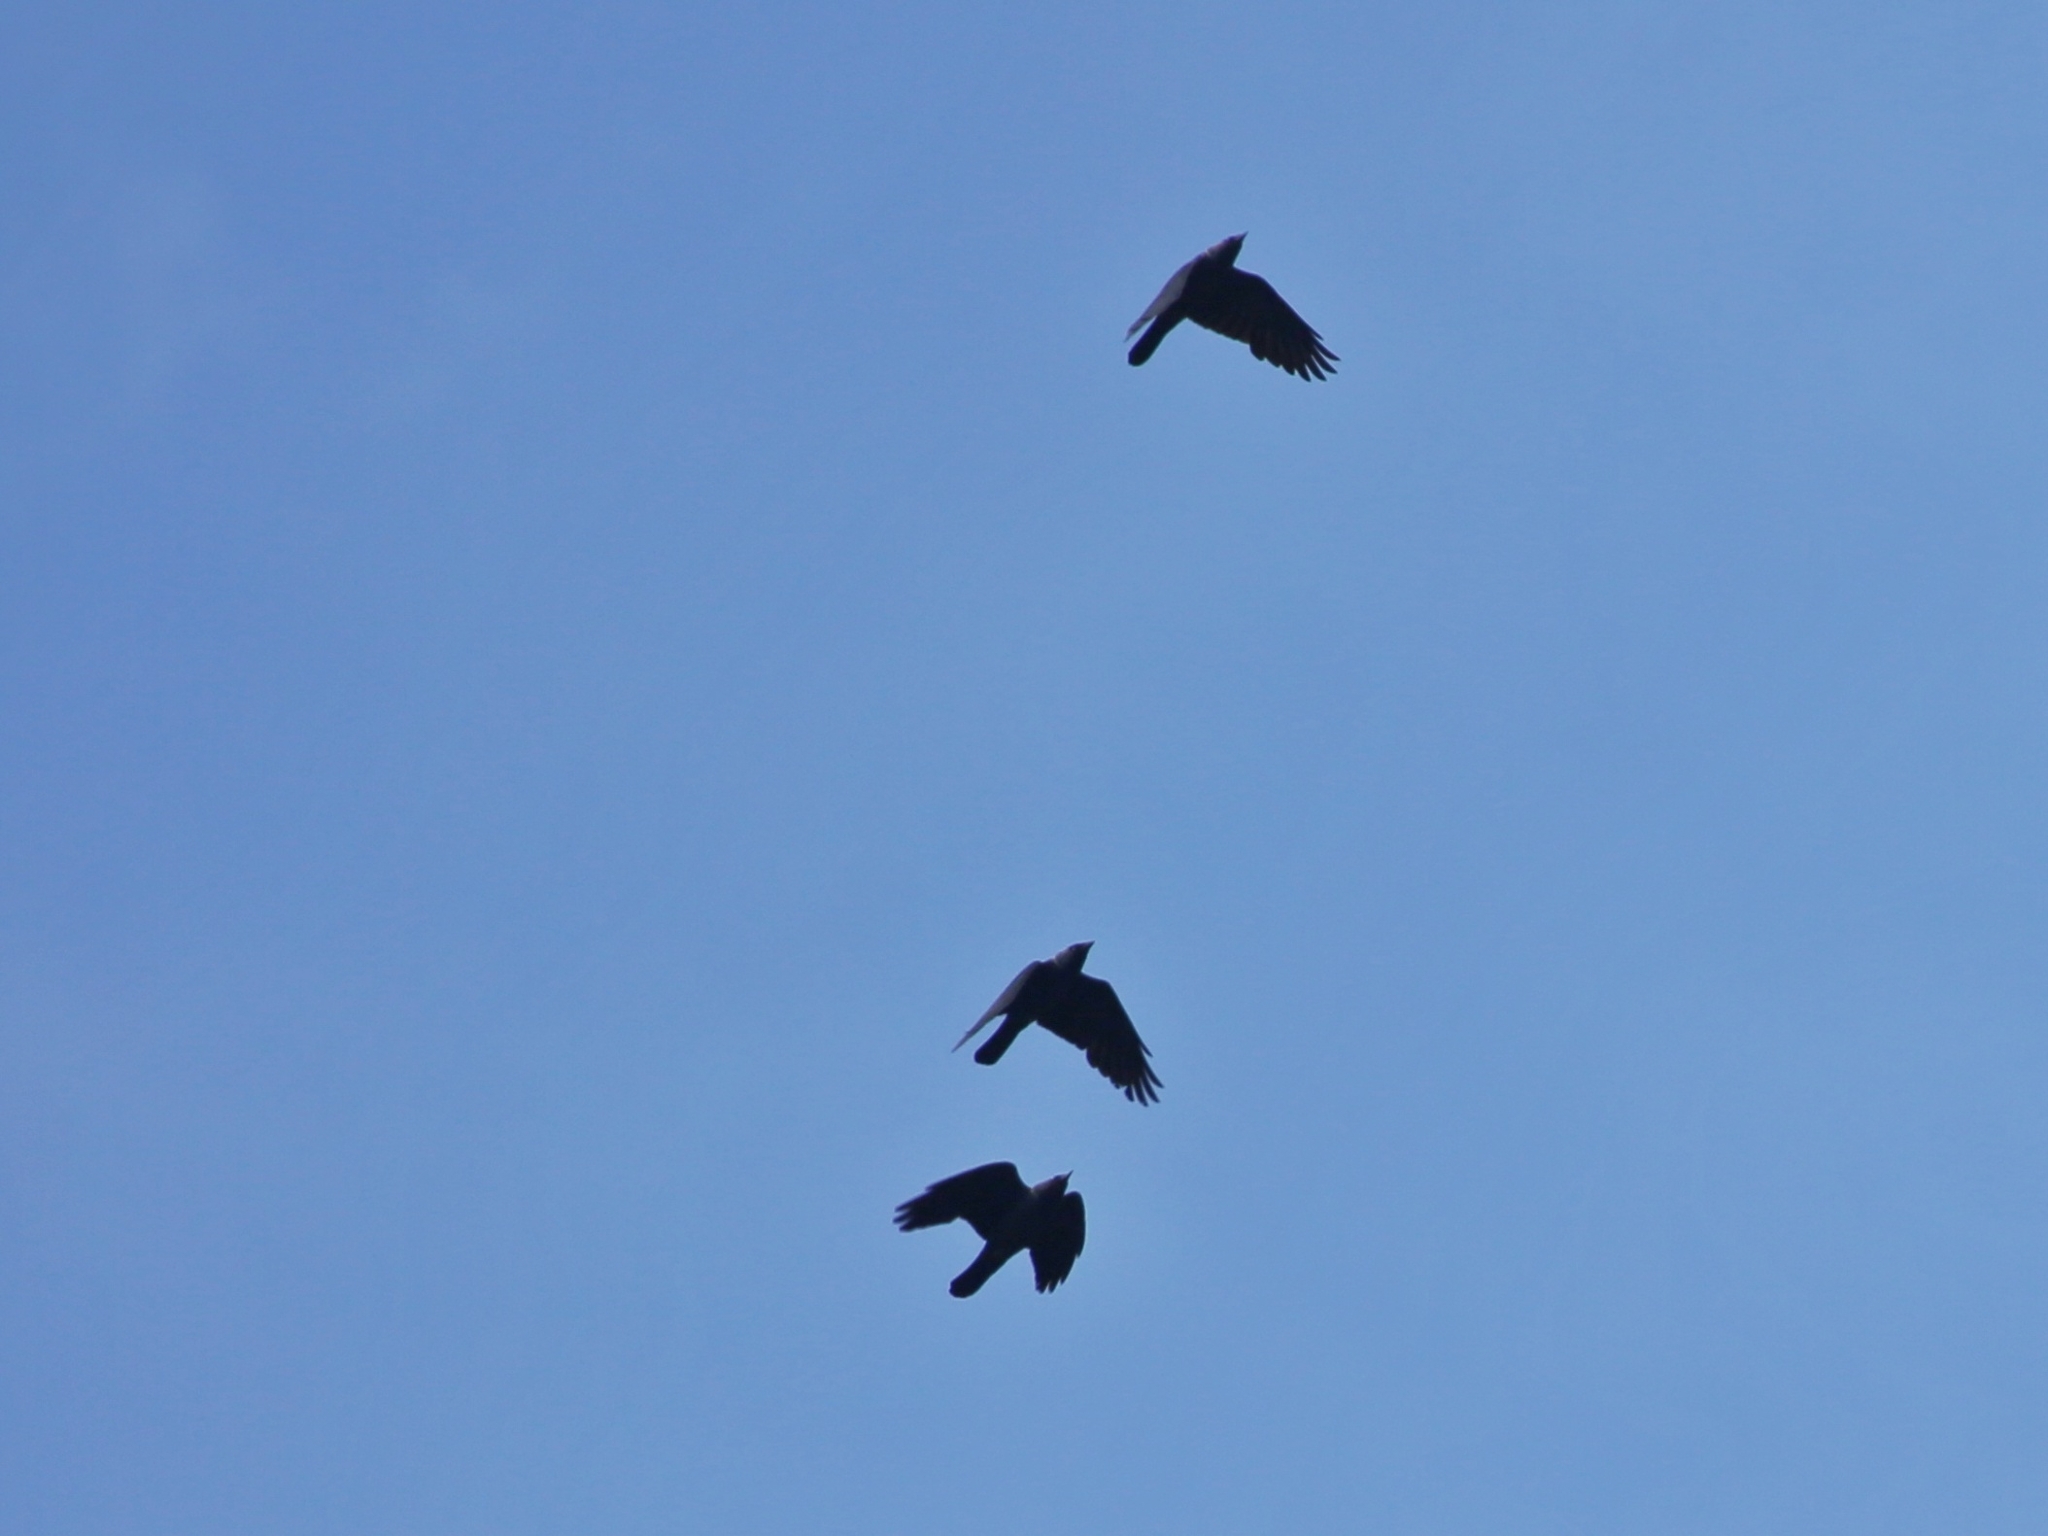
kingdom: Animalia
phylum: Chordata
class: Aves
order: Passeriformes
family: Corvidae
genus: Coloeus
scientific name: Coloeus monedula
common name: Western jackdaw
